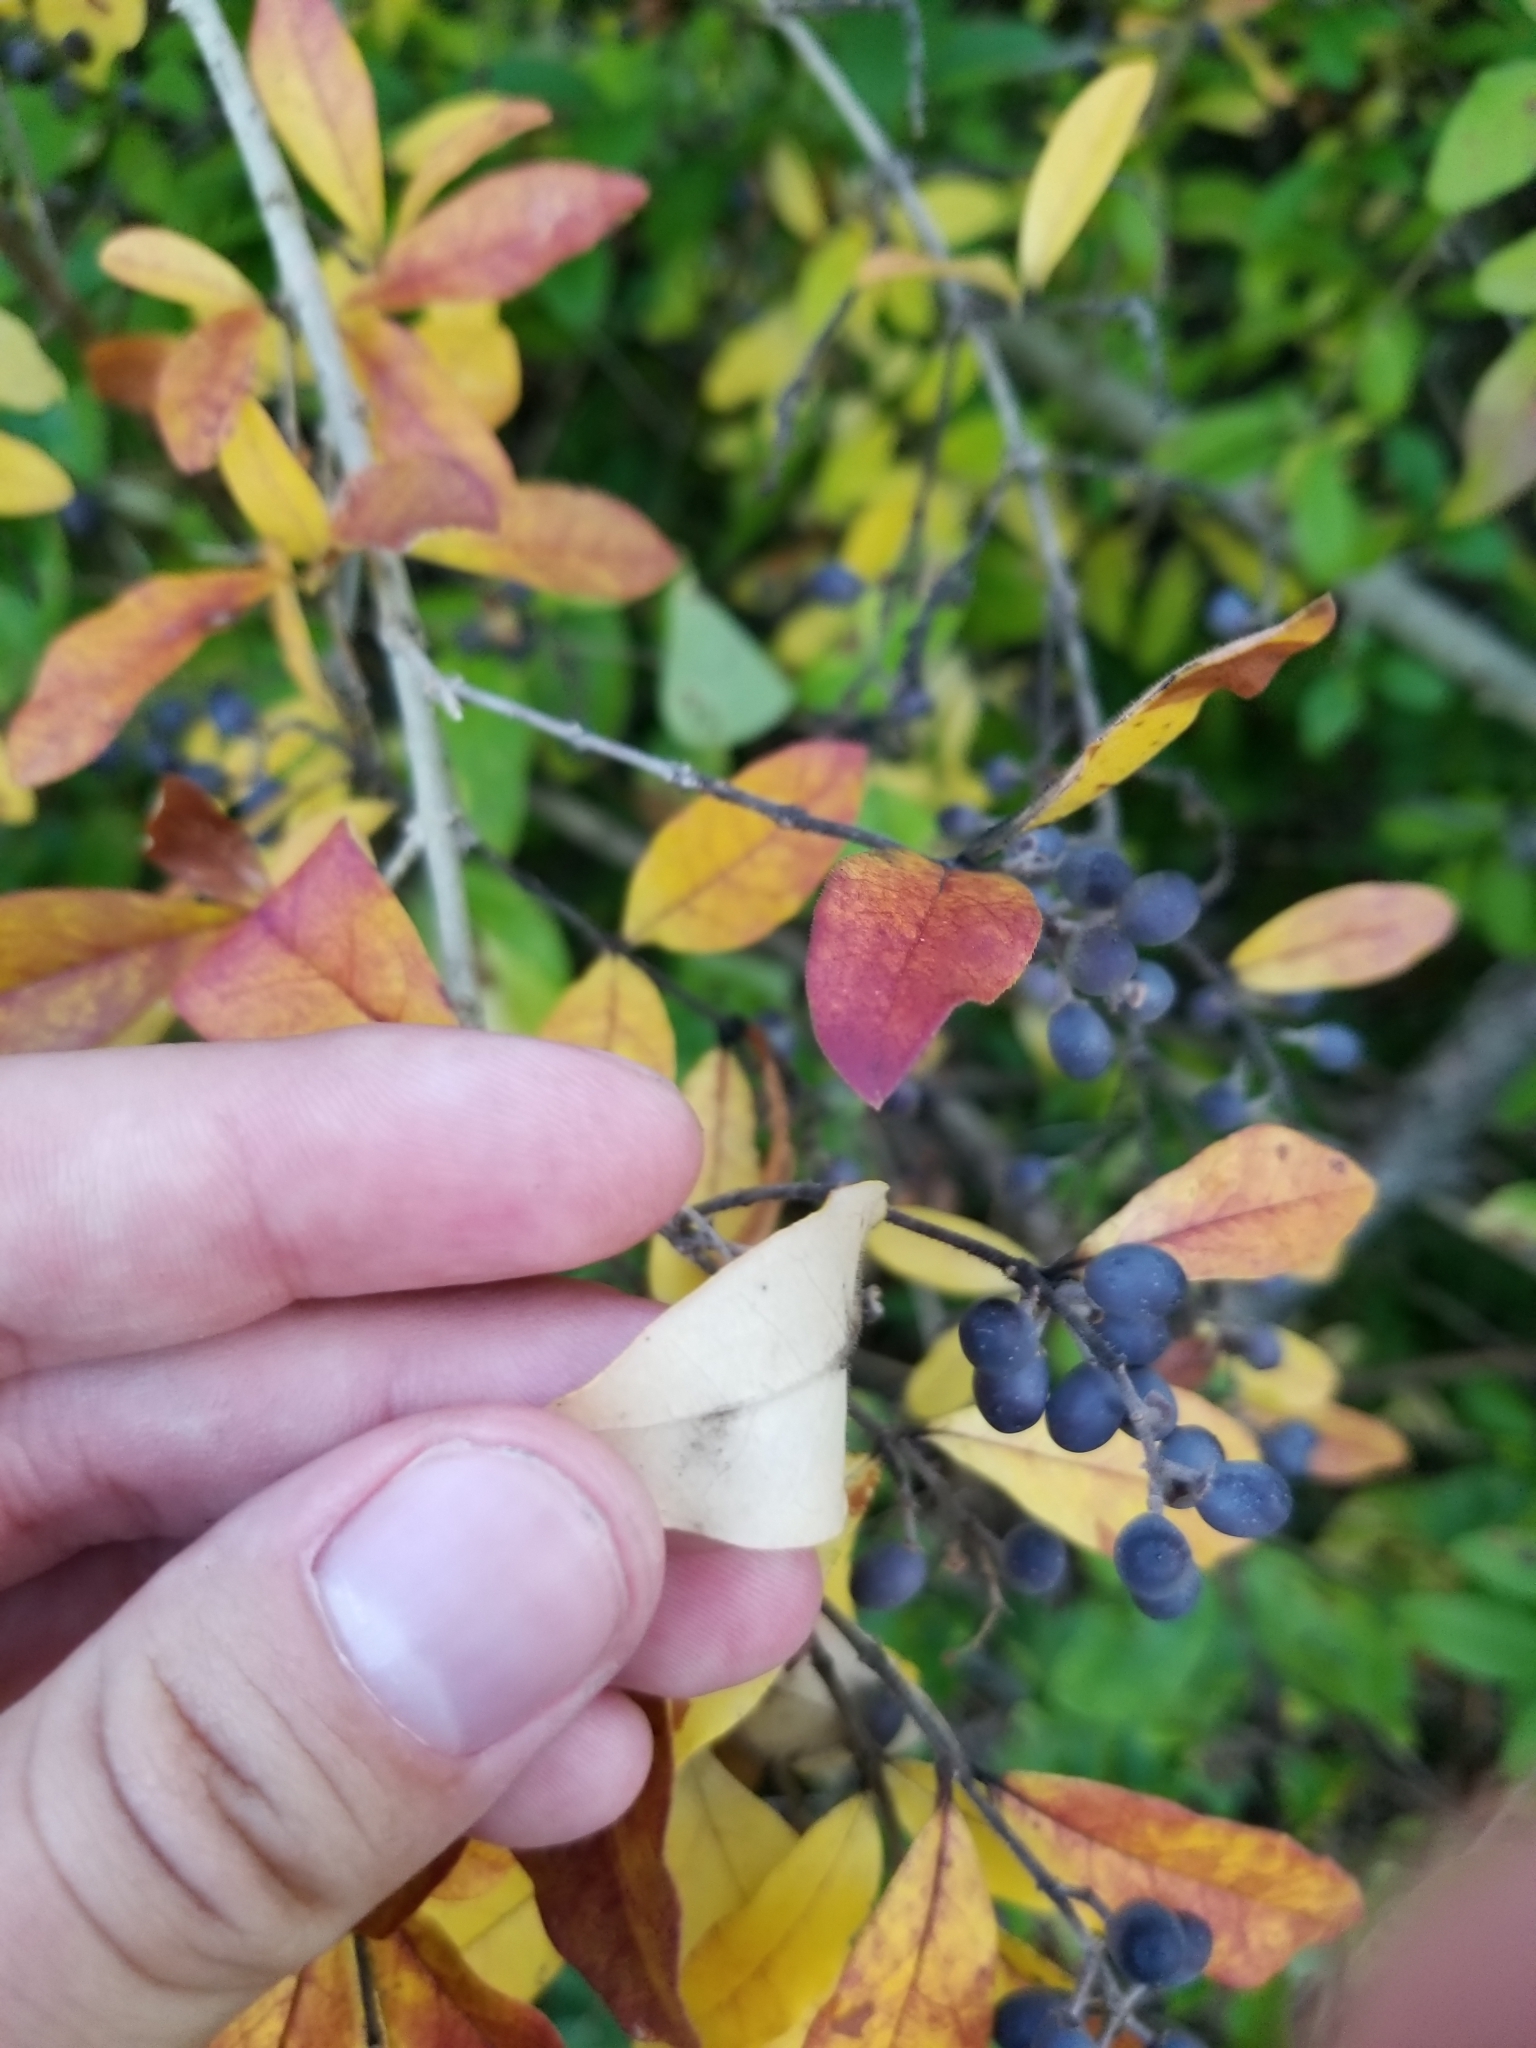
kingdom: Plantae
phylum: Tracheophyta
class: Magnoliopsida
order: Lamiales
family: Oleaceae
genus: Ligustrum
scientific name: Ligustrum obtusifolium
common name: Border privet
